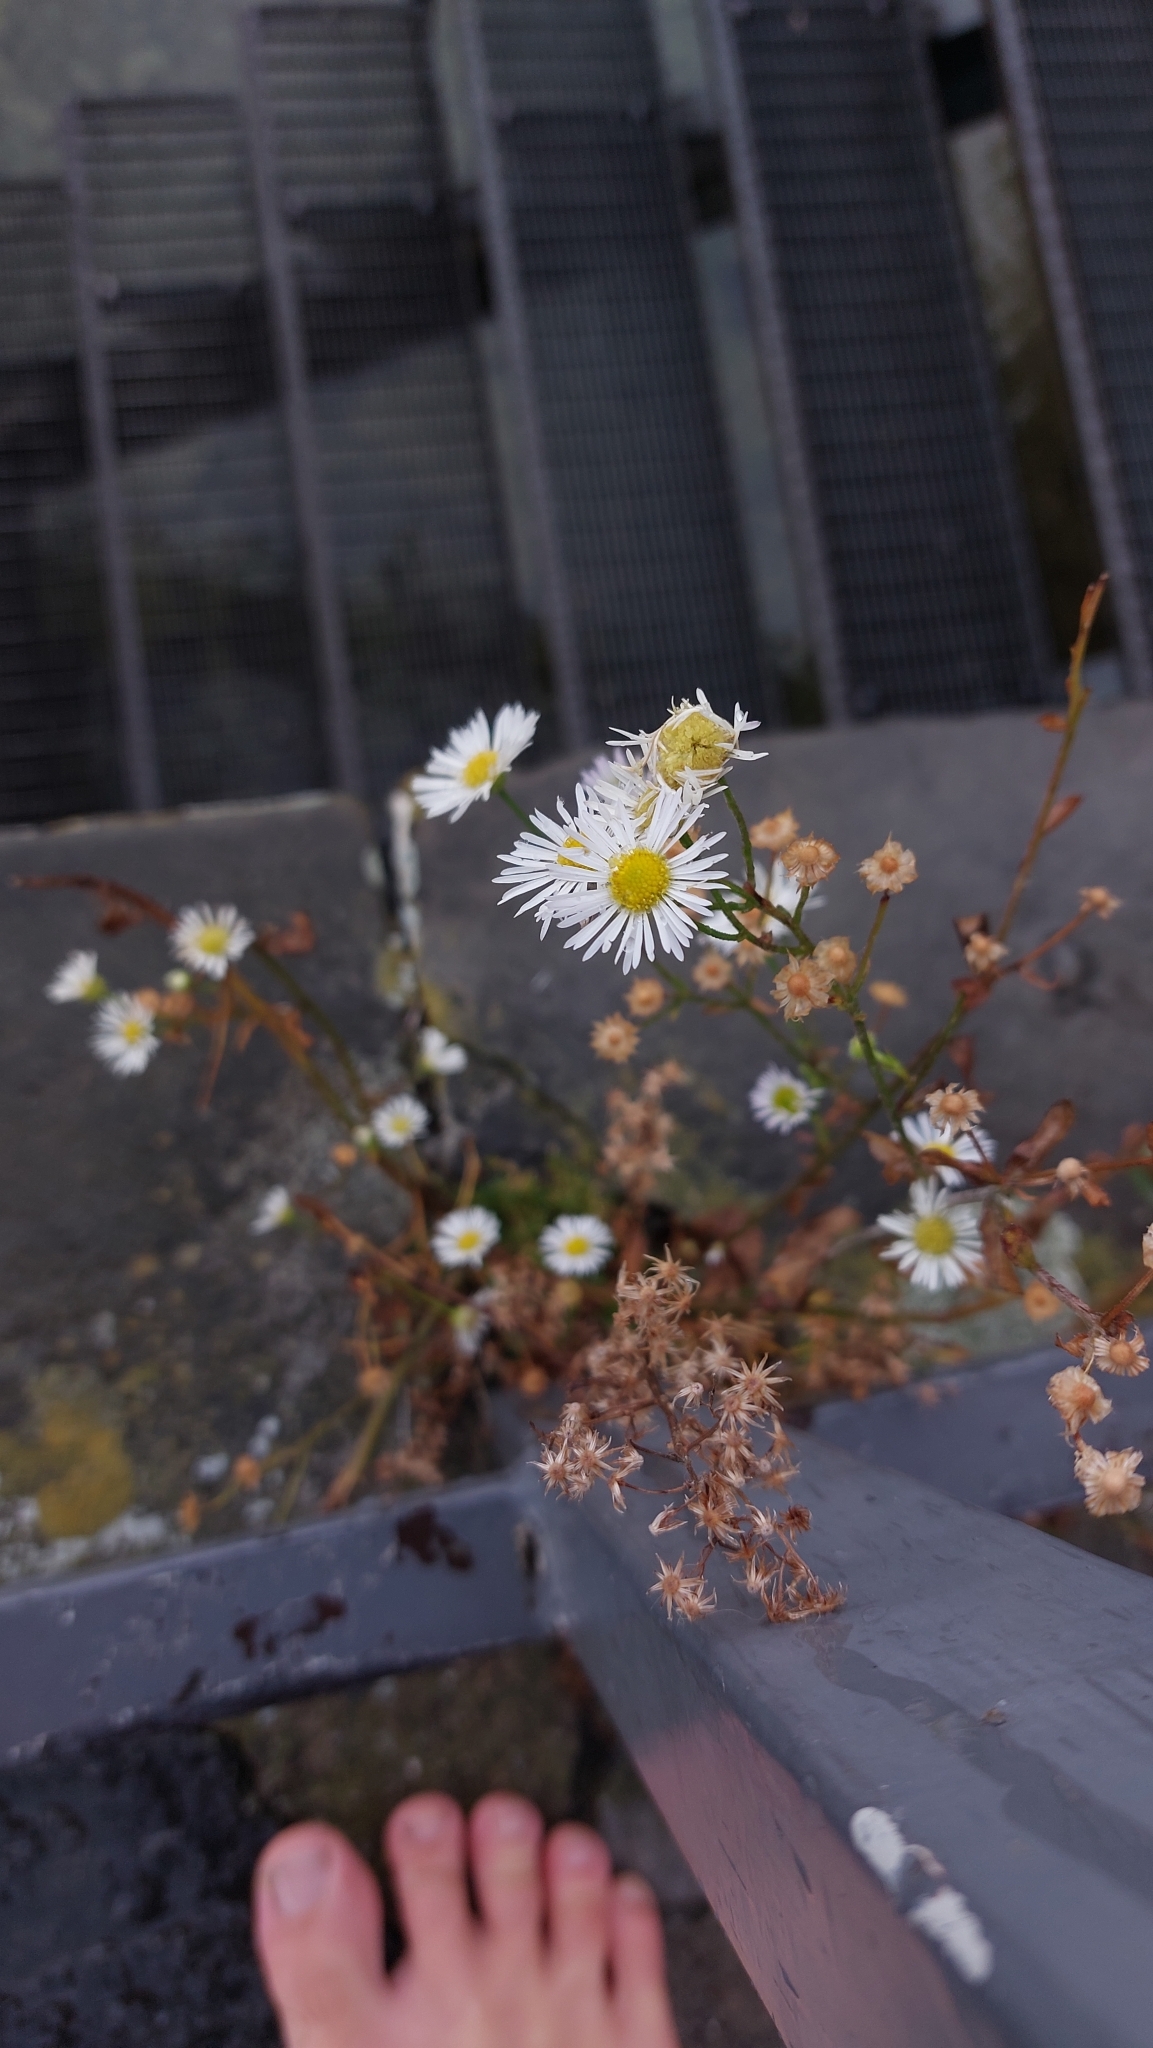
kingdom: Plantae
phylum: Tracheophyta
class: Magnoliopsida
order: Asterales
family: Asteraceae
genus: Erigeron
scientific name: Erigeron annuus
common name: Tall fleabane
